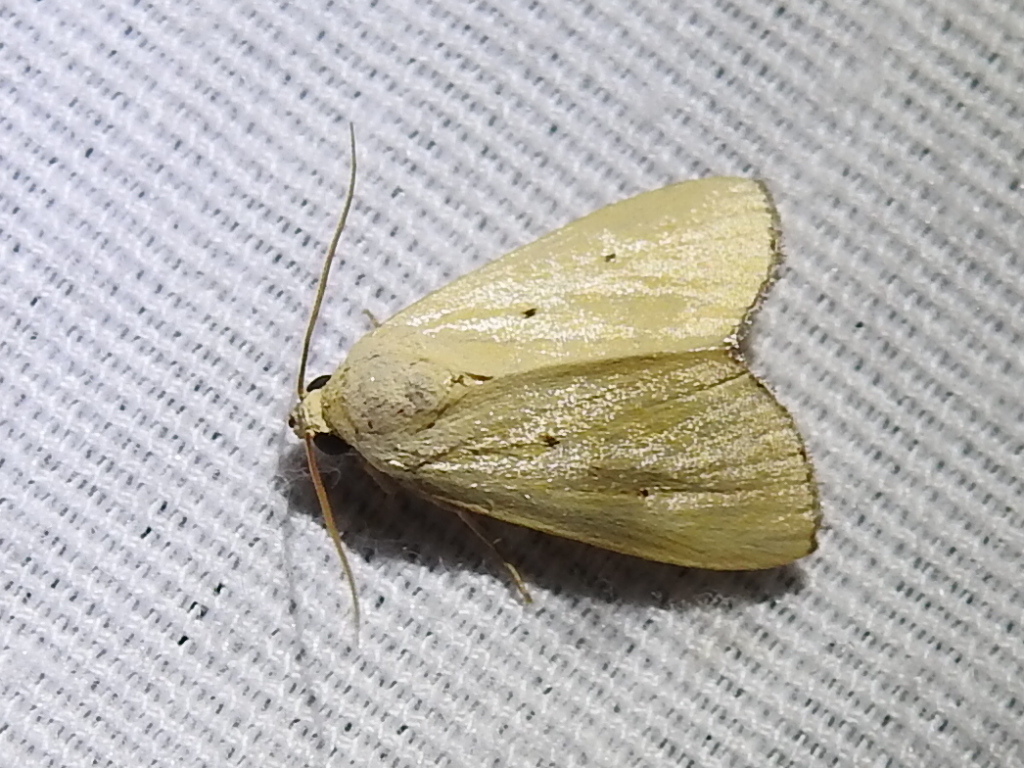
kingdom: Animalia
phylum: Arthropoda
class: Insecta
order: Lepidoptera
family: Noctuidae
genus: Marimatha
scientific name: Marimatha nigrofimbria
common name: Black-bordered lemon moth
